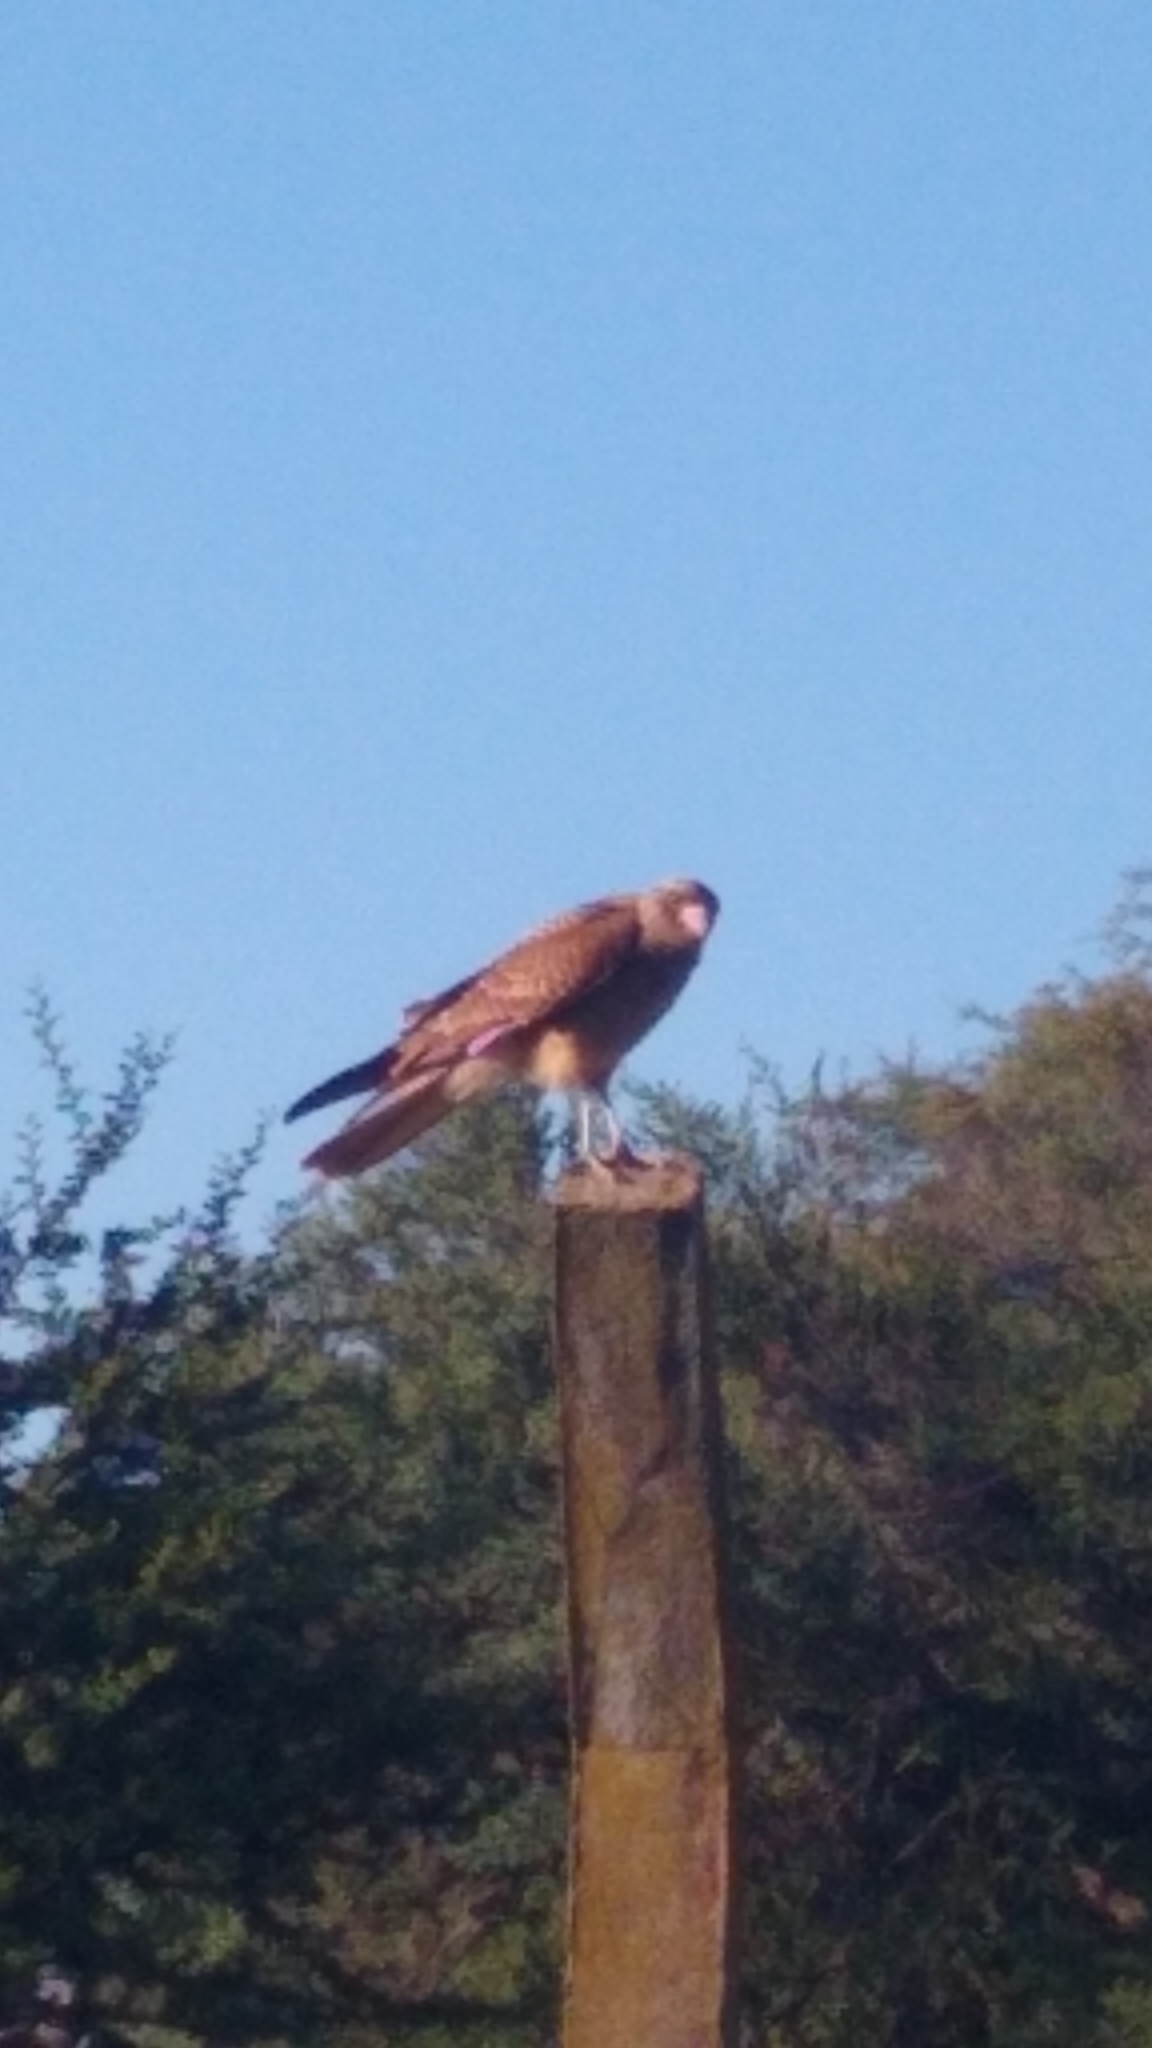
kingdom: Animalia
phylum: Chordata
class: Aves
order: Falconiformes
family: Falconidae
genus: Daptrius
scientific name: Daptrius
